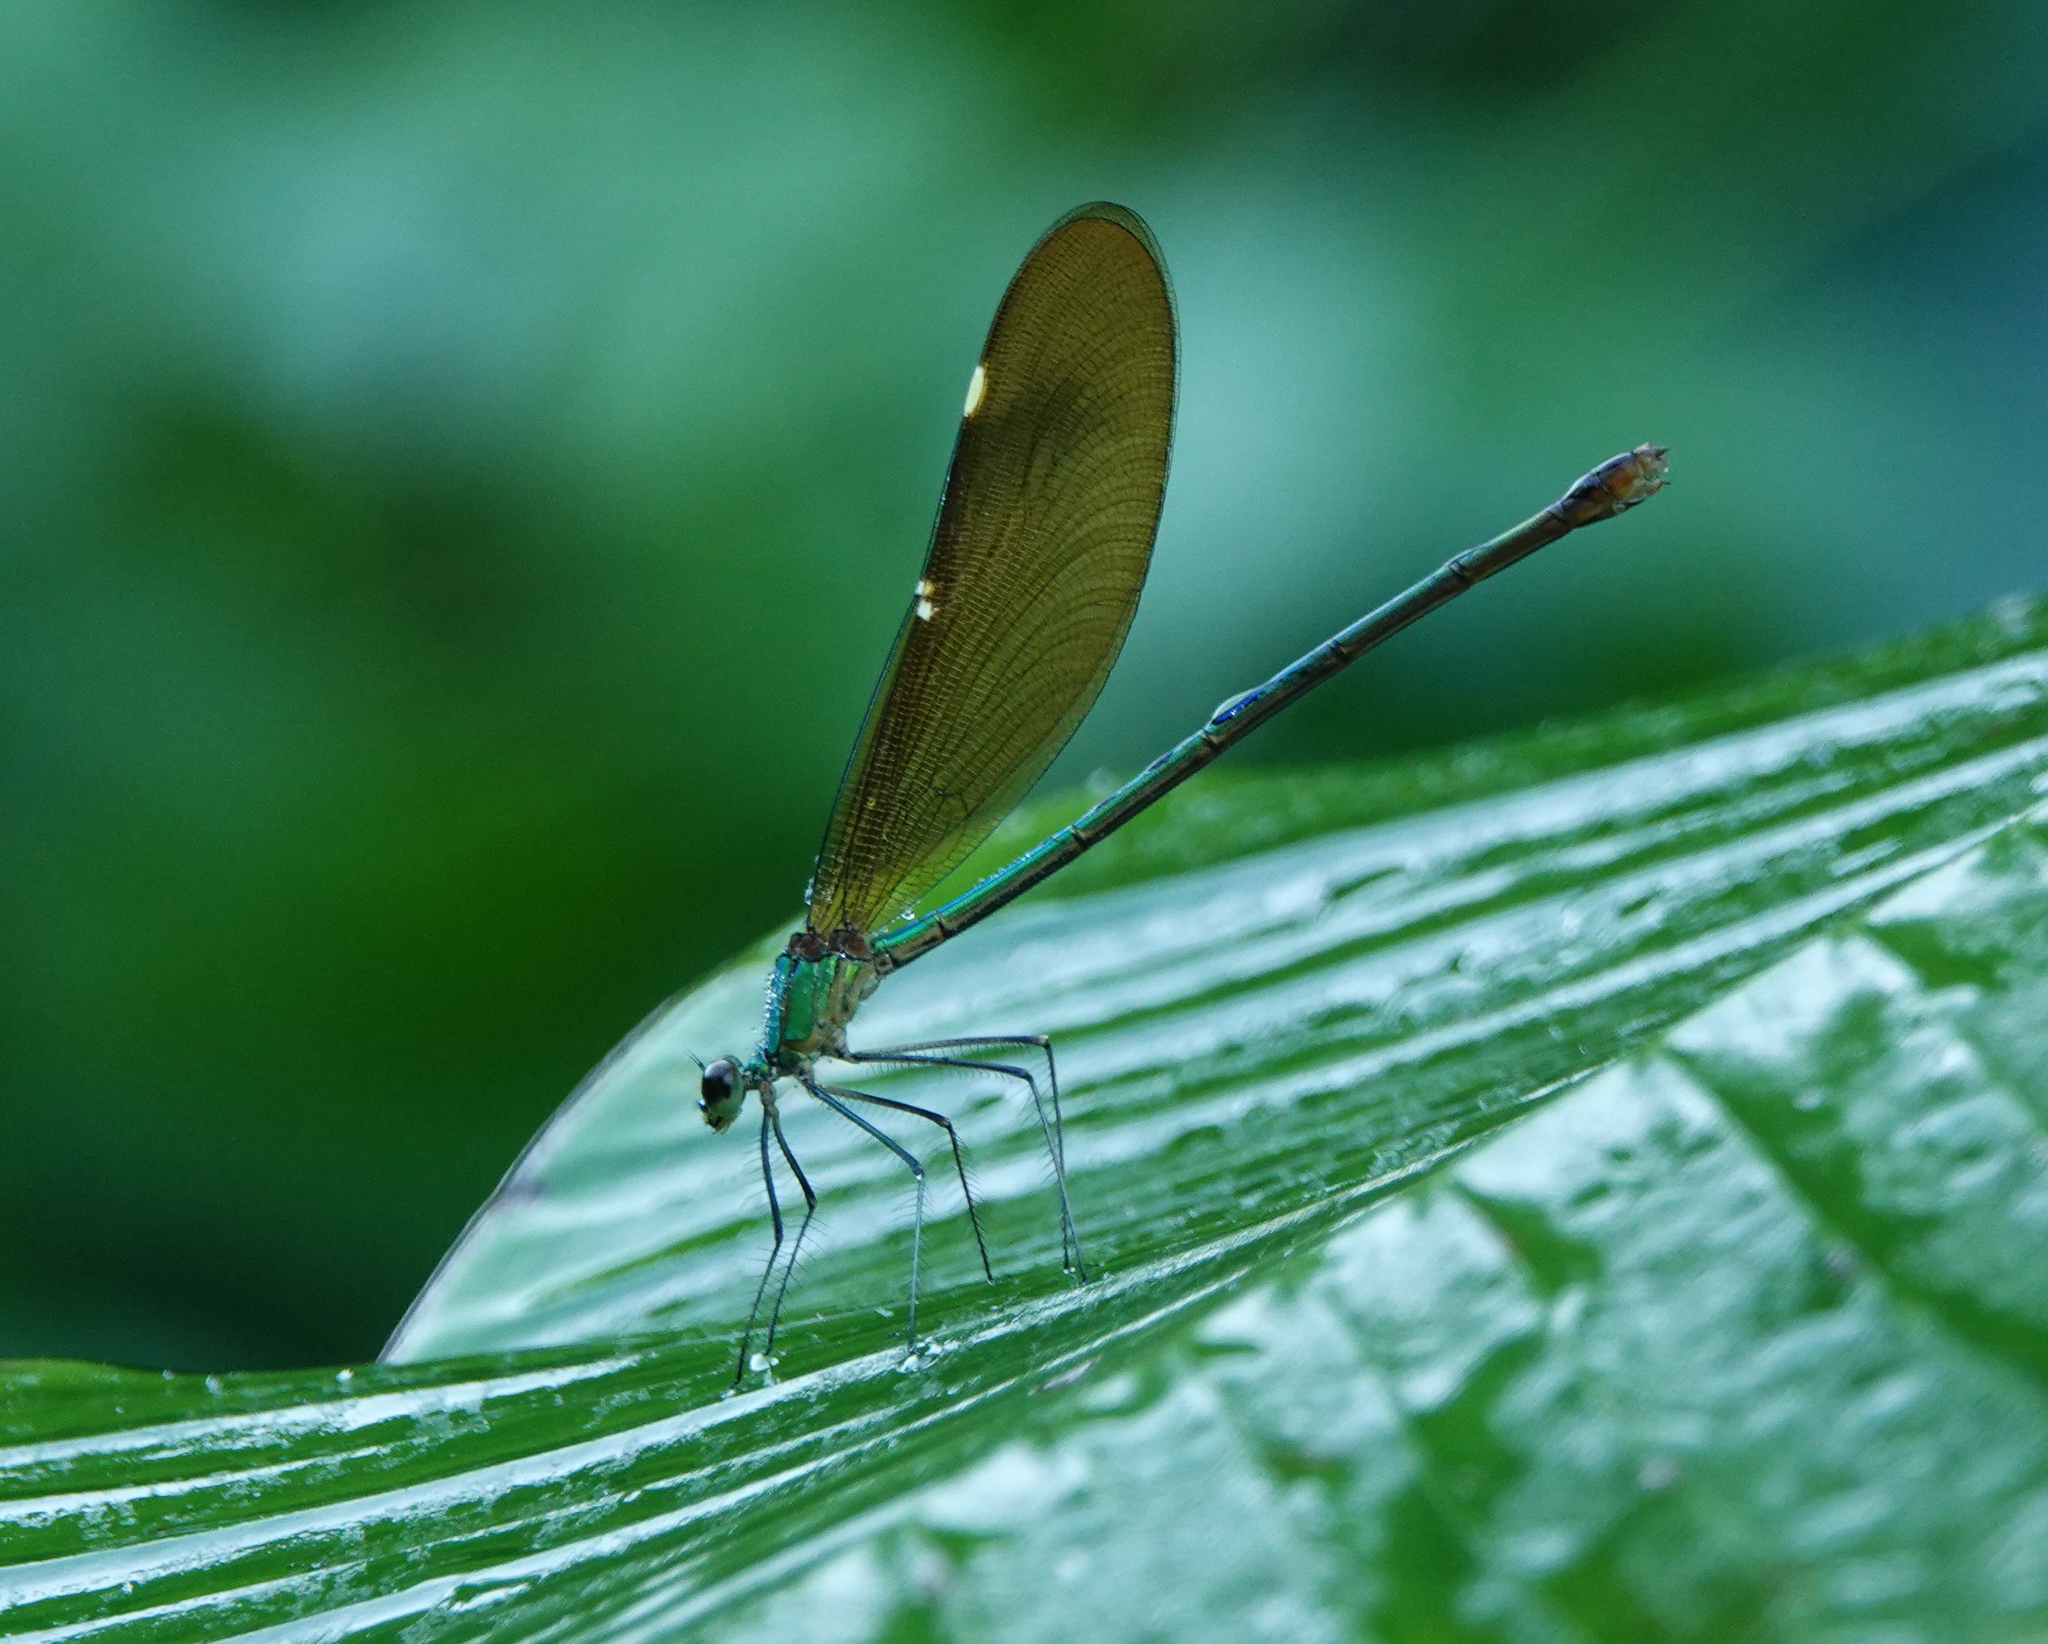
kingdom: Animalia
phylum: Arthropoda
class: Insecta
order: Odonata
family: Calopterygidae
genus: Neurobasis
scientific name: Neurobasis chinensis
